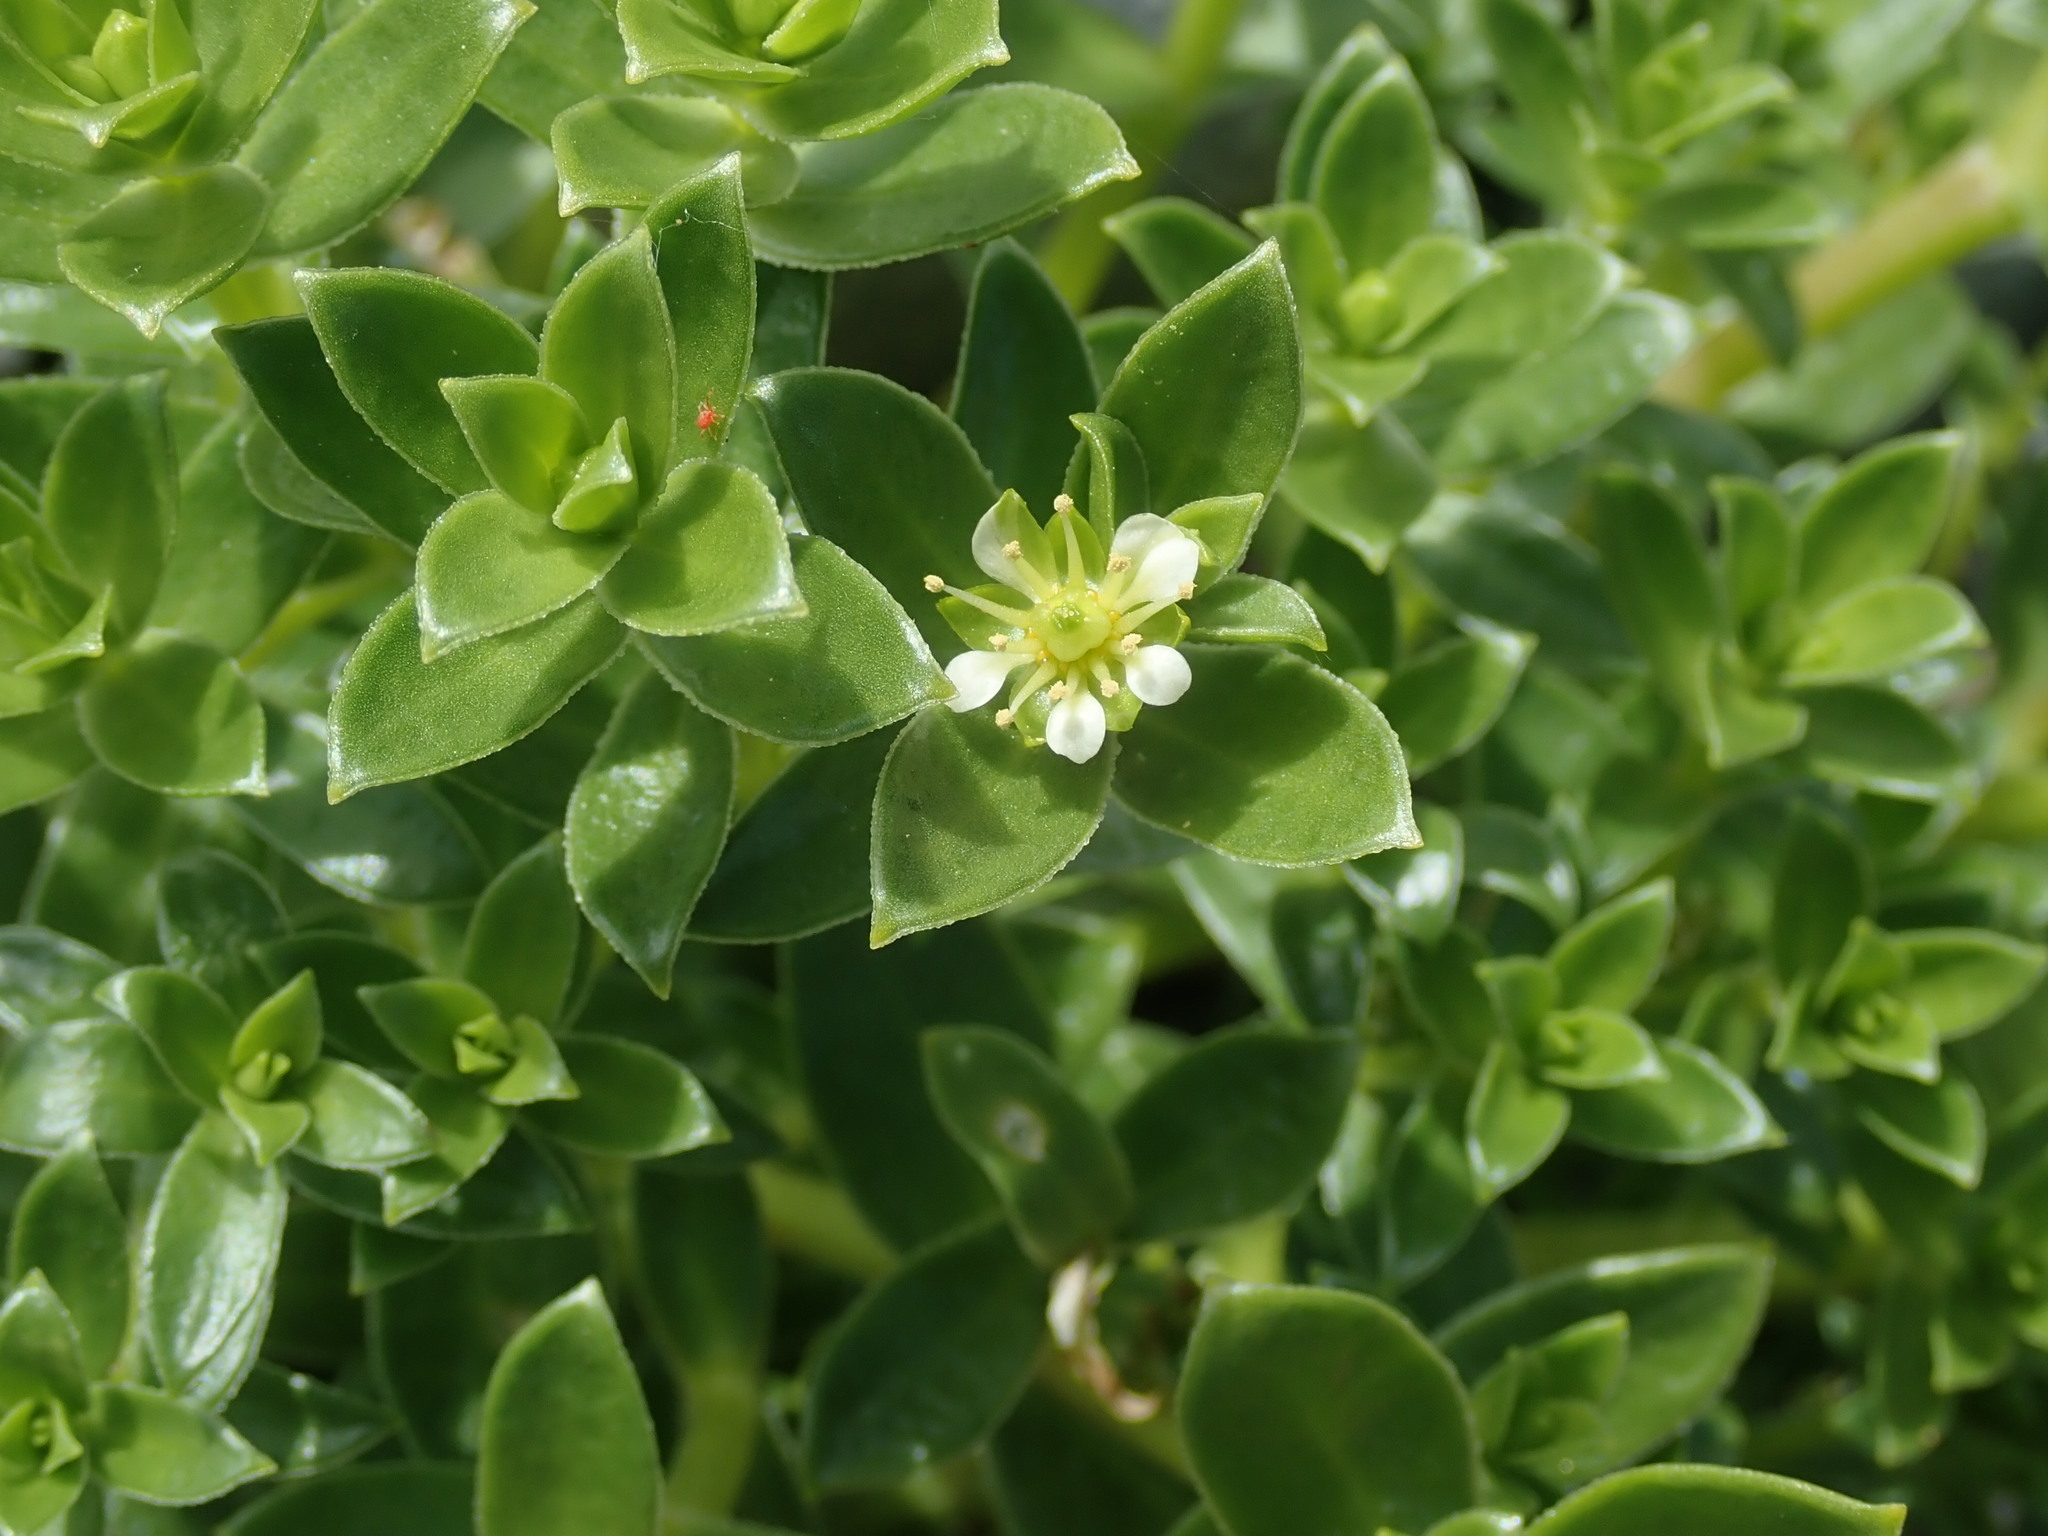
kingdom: Plantae
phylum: Tracheophyta
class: Magnoliopsida
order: Caryophyllales
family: Caryophyllaceae
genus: Honckenya
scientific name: Honckenya peploides
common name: Sea sandwort
